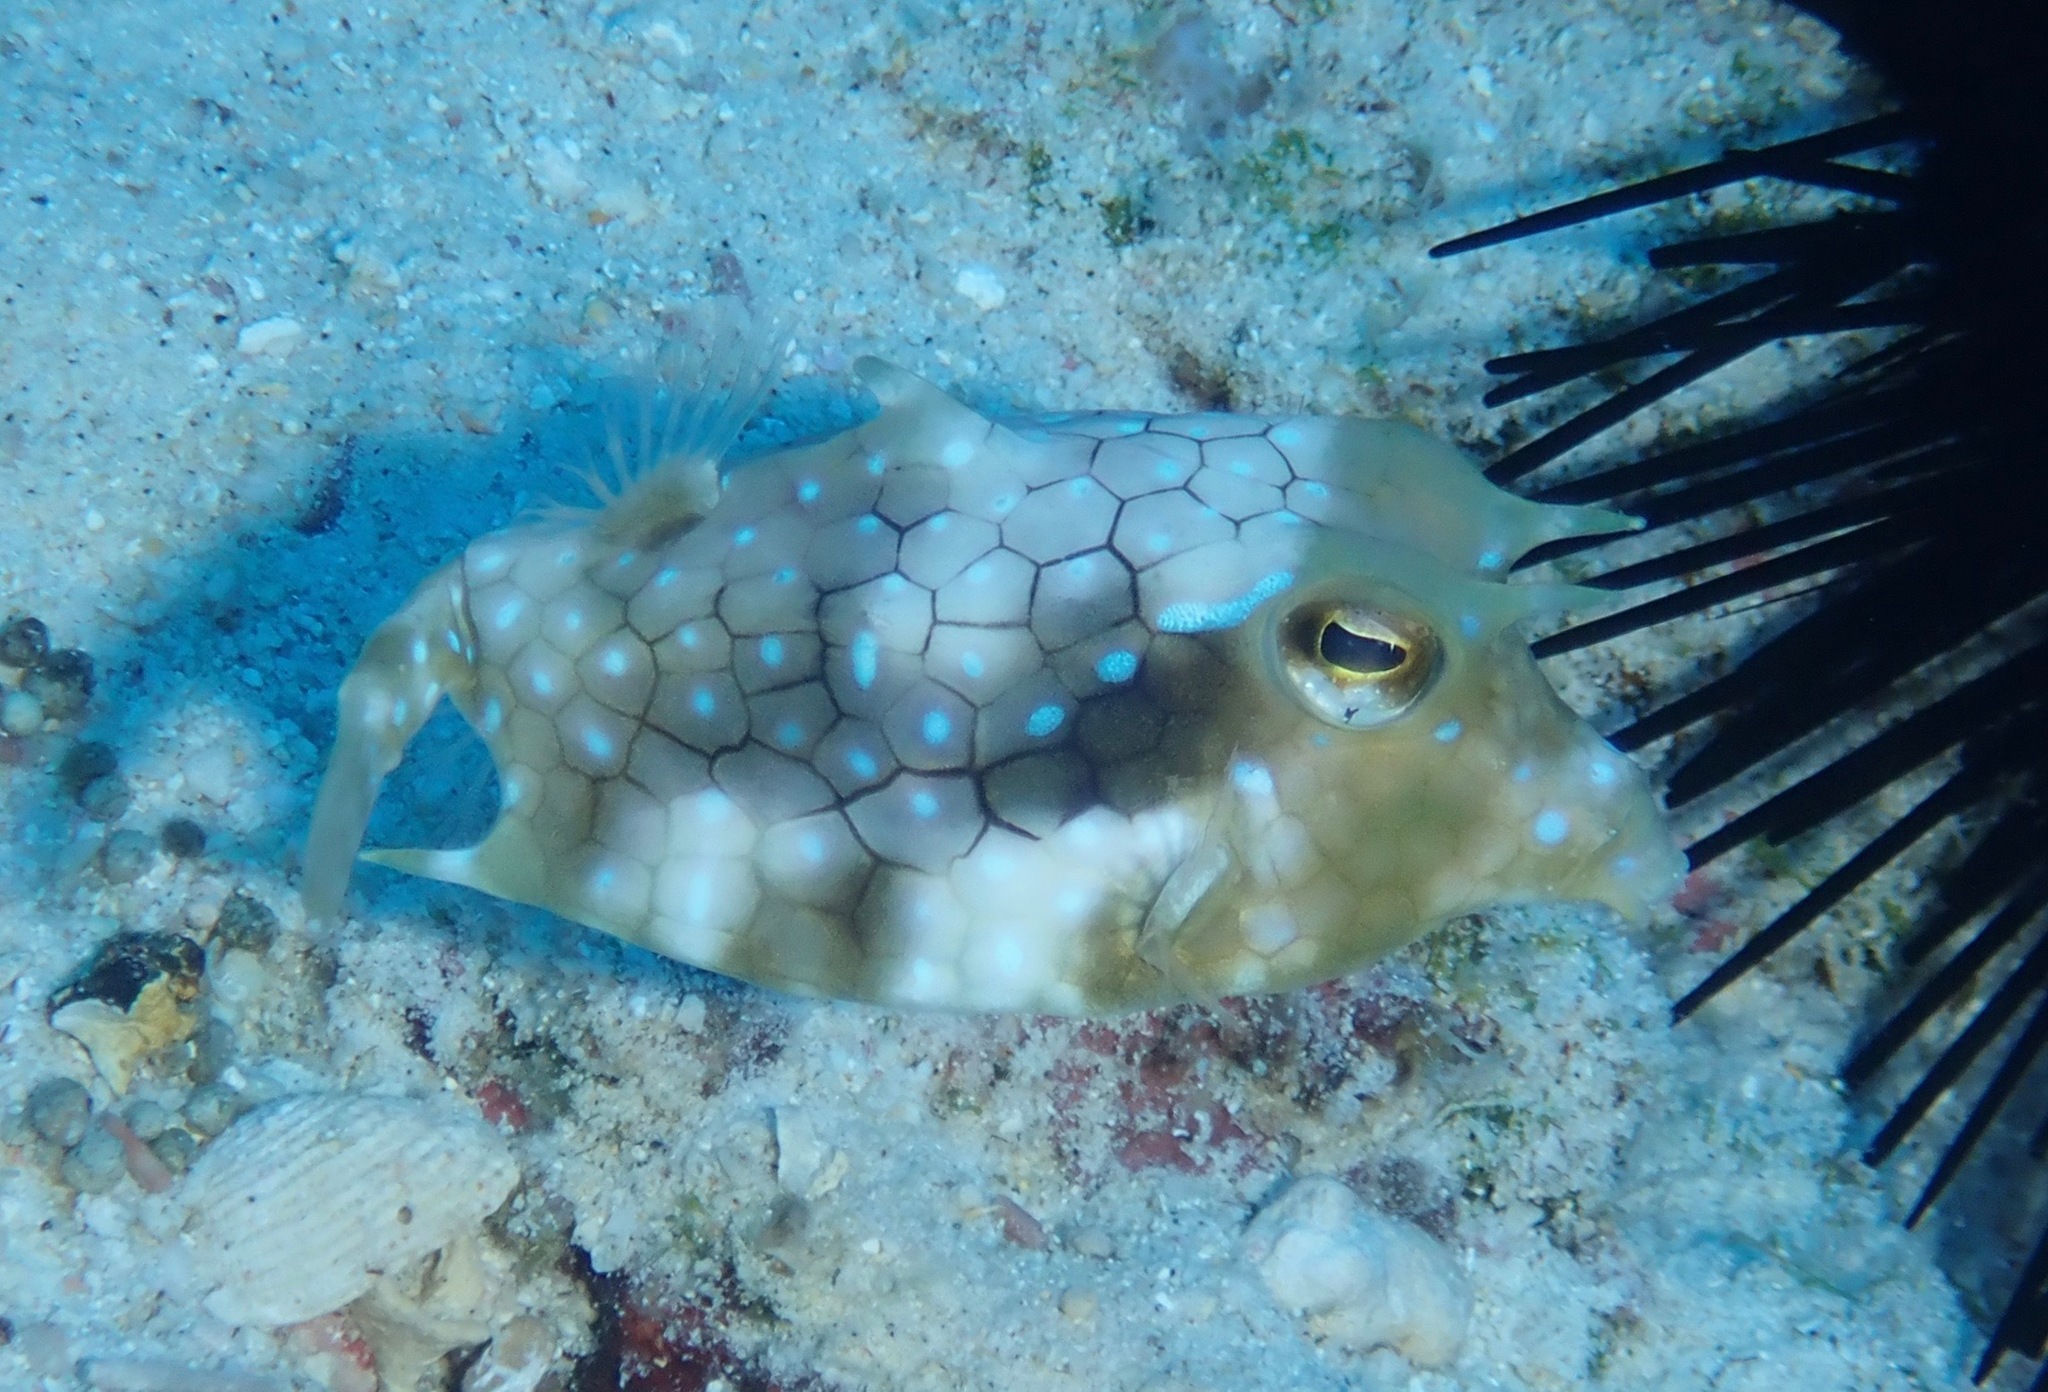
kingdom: Animalia
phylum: Chordata
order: Tetraodontiformes
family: Ostraciidae
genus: Lactoria
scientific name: Lactoria fornasini
